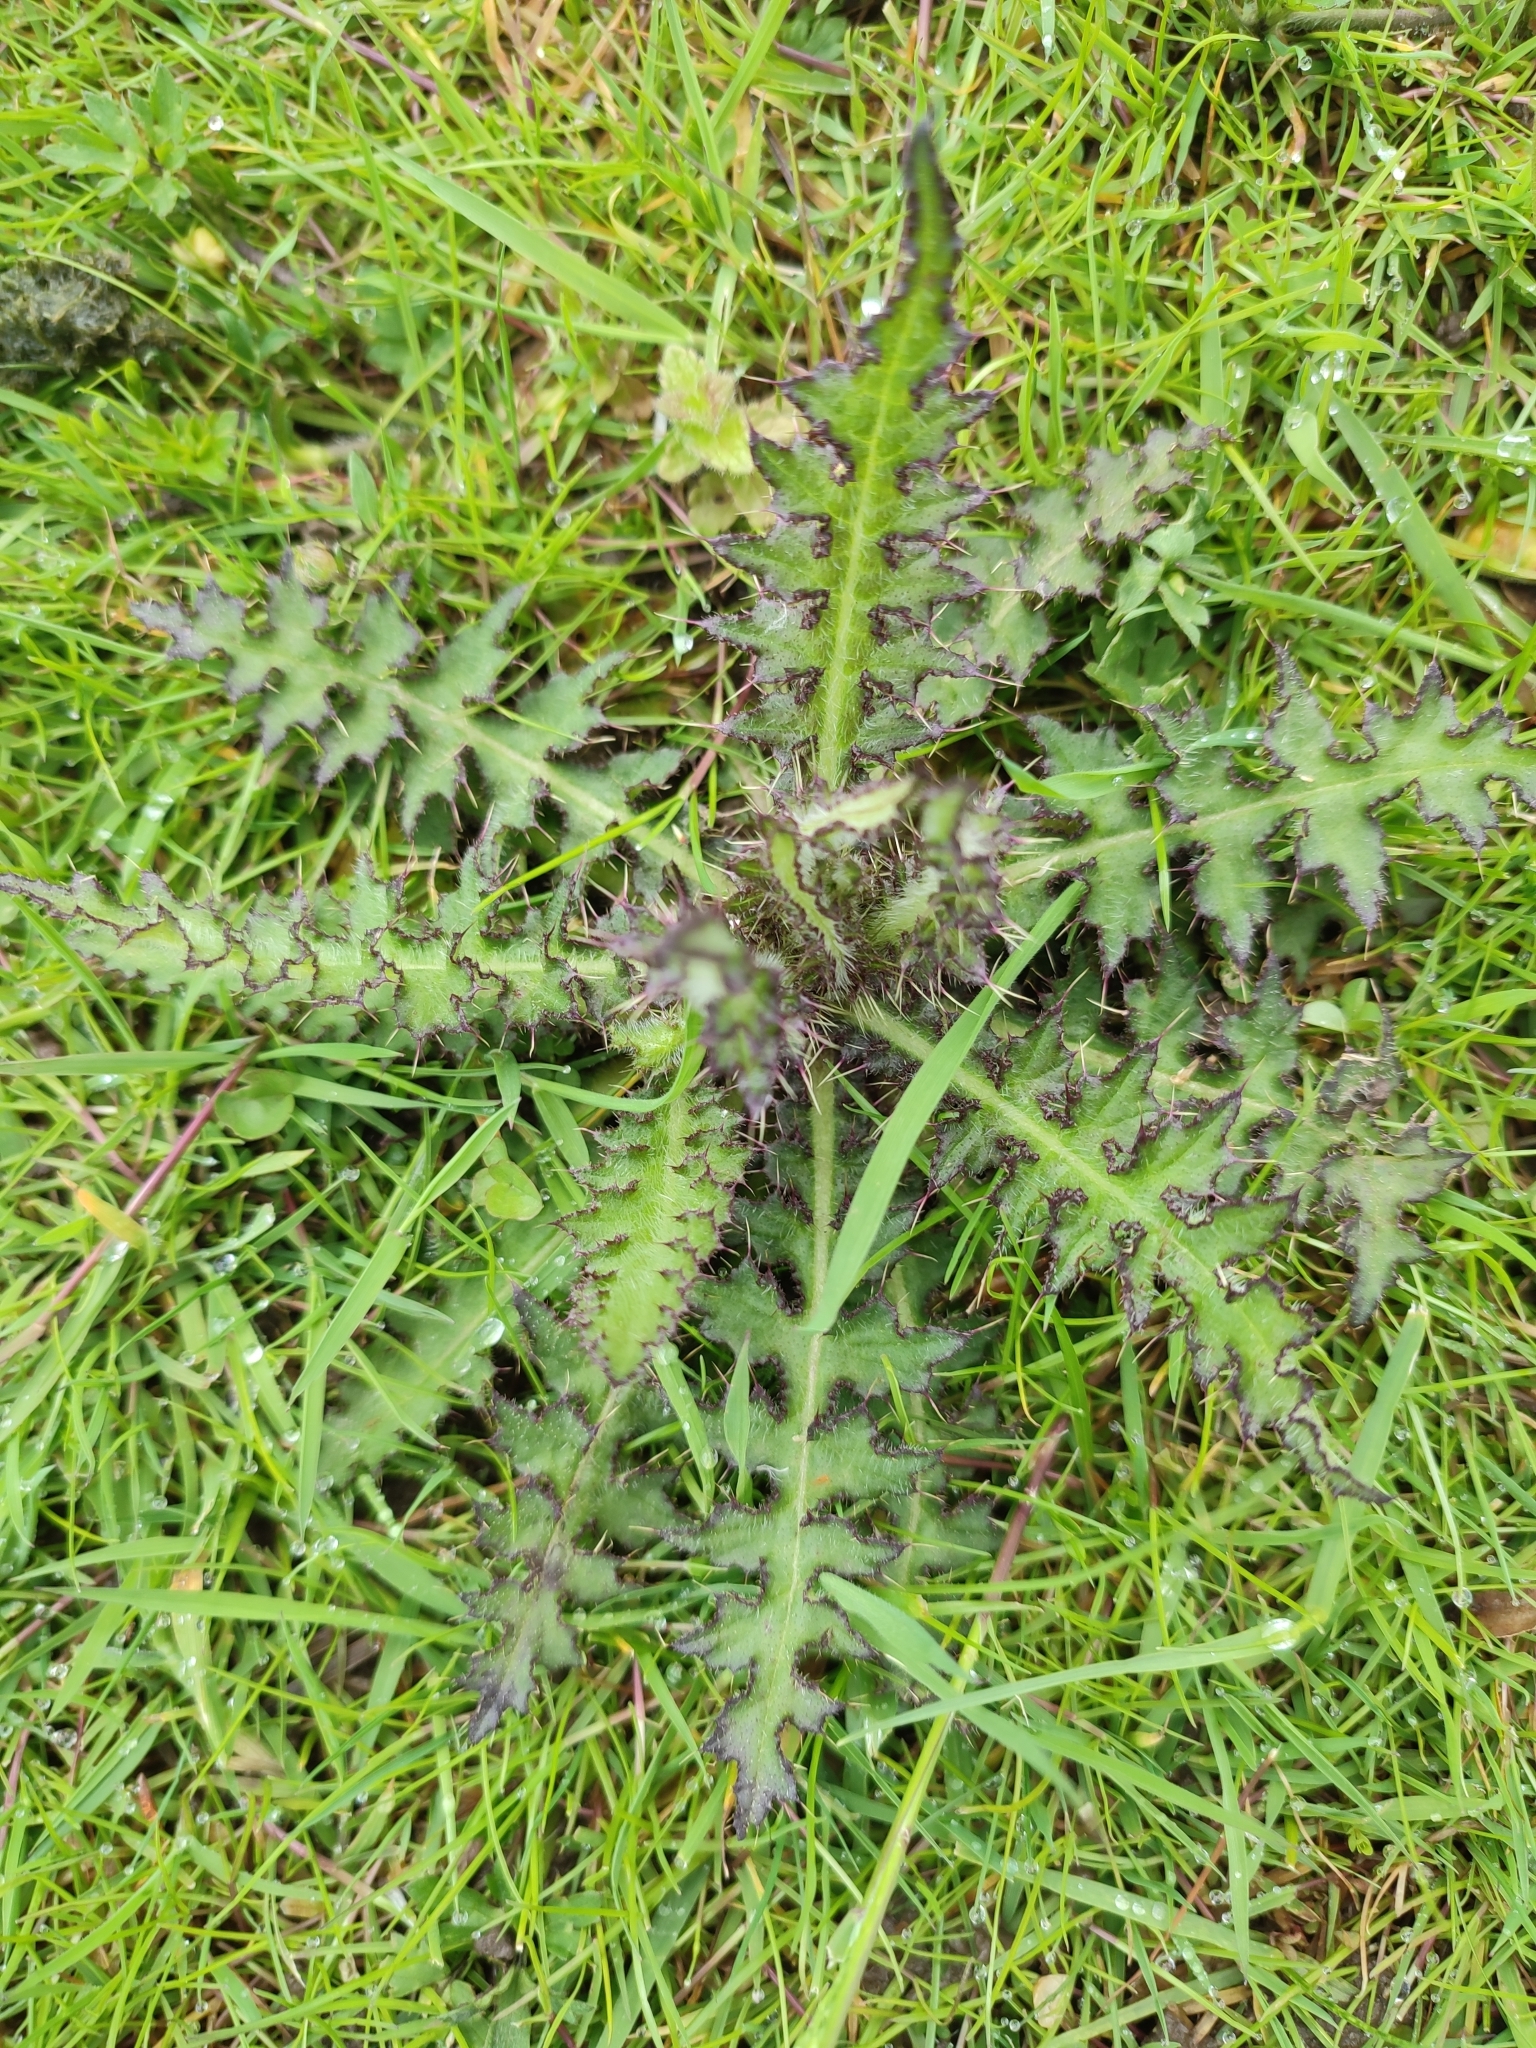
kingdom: Plantae
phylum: Tracheophyta
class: Magnoliopsida
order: Asterales
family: Asteraceae
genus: Cirsium
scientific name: Cirsium palustre
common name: Marsh thistle
